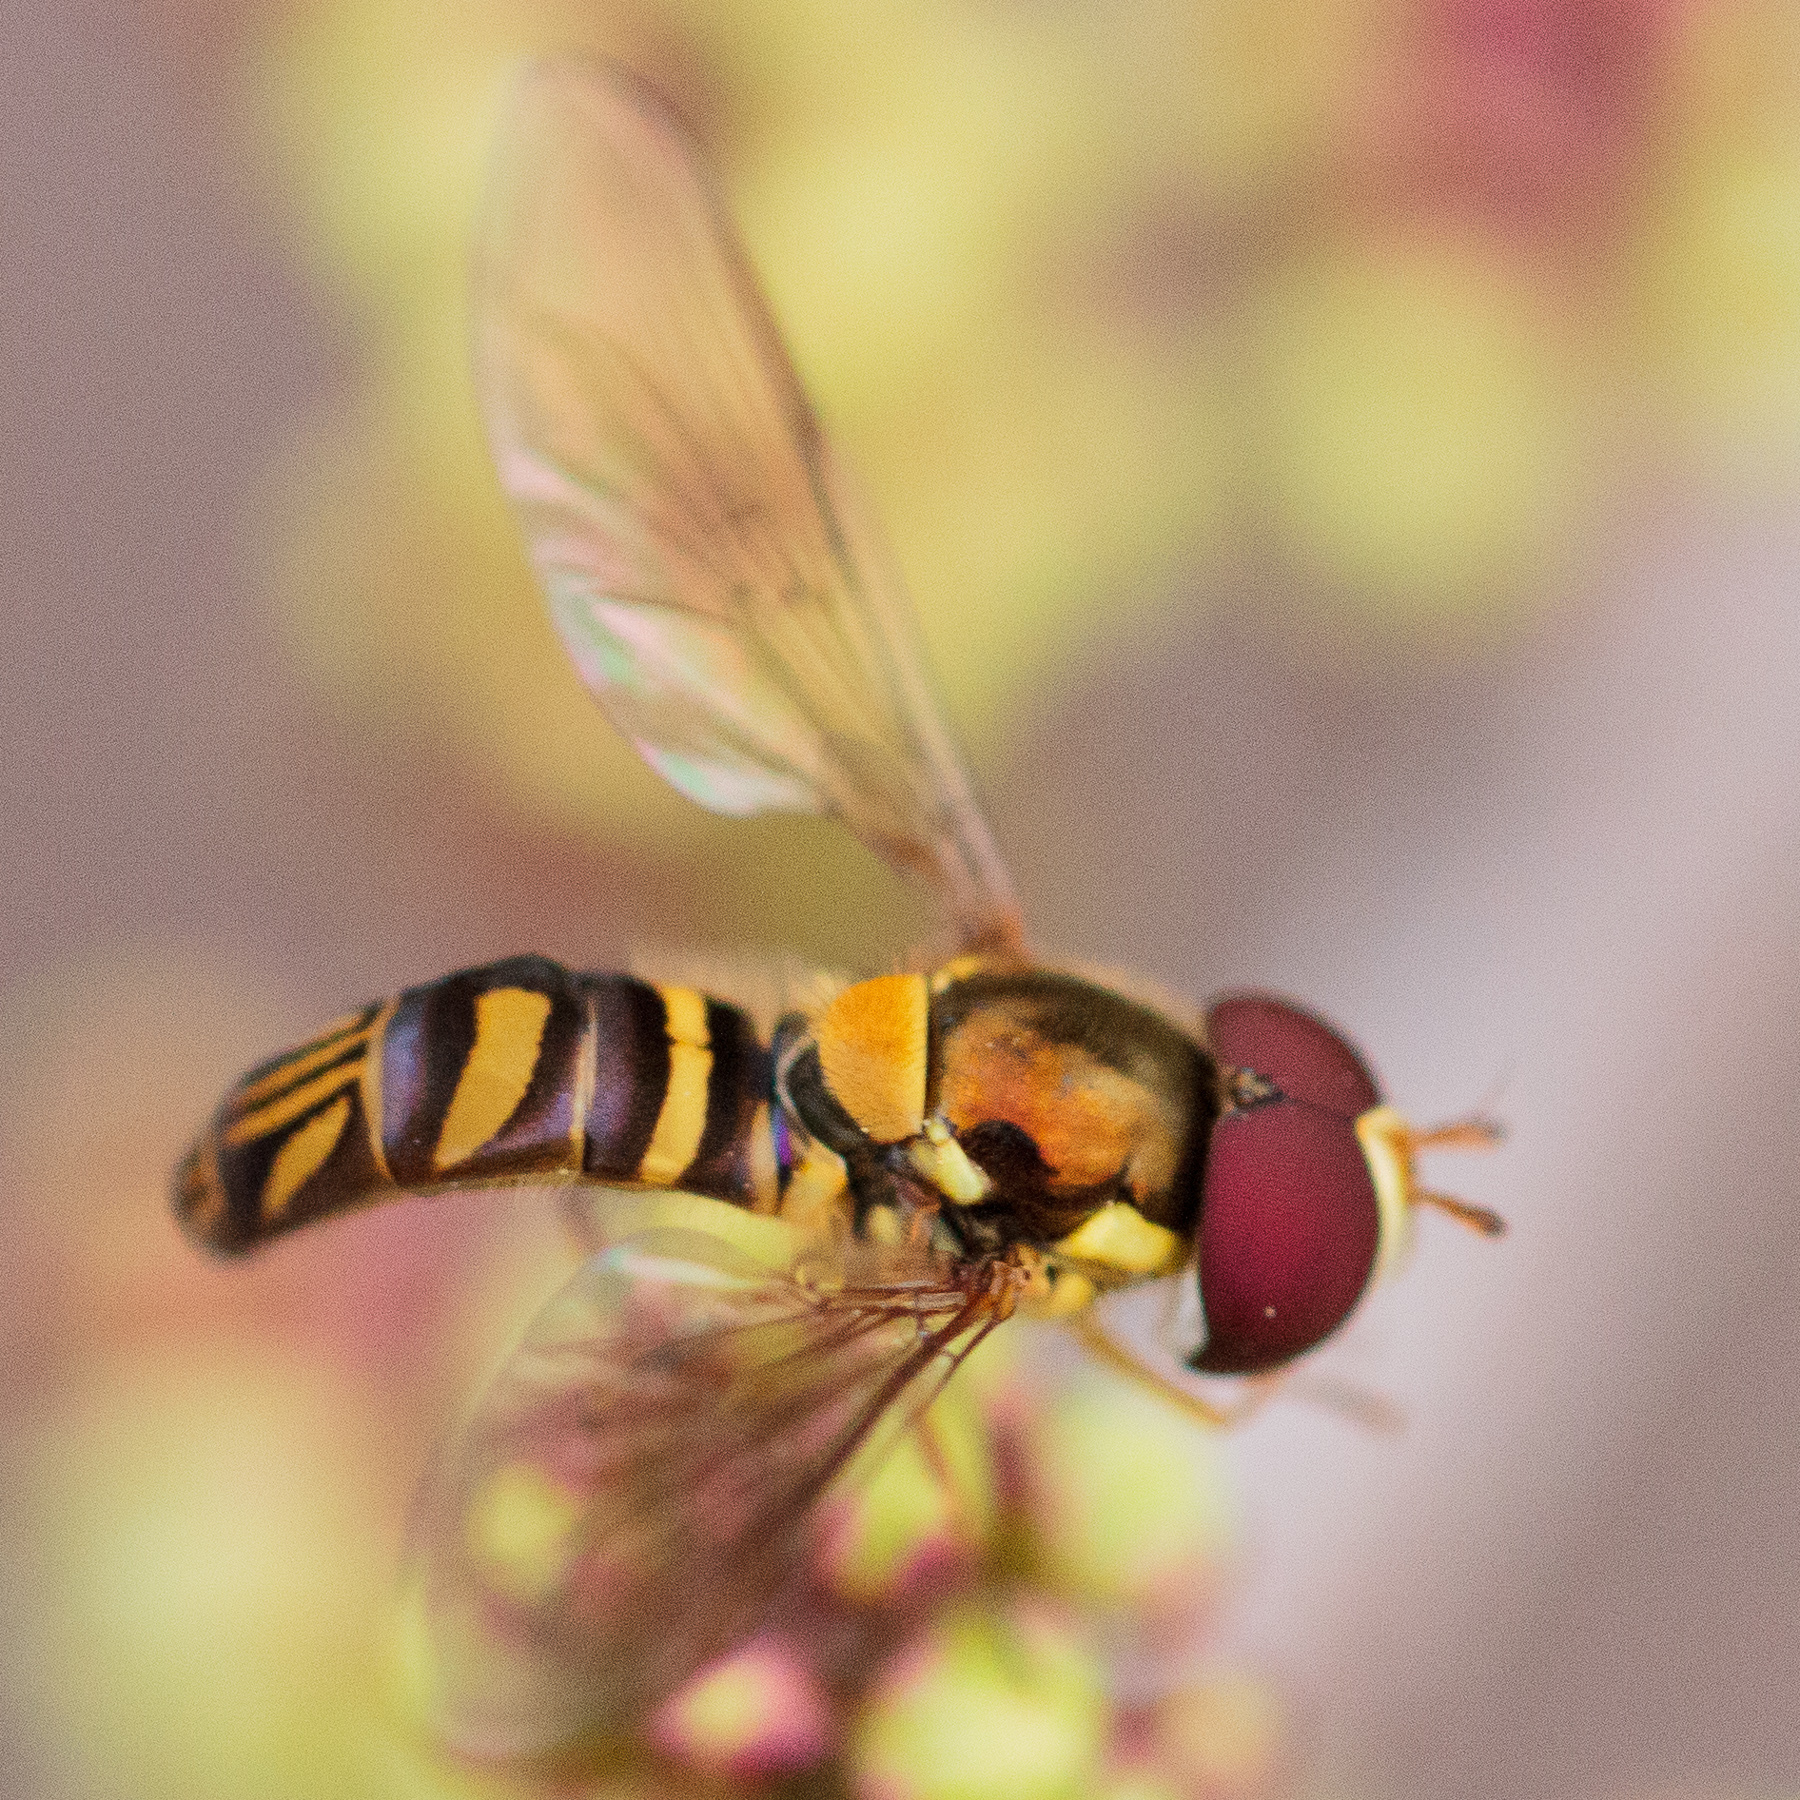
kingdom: Animalia
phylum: Arthropoda
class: Insecta
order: Diptera
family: Syrphidae
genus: Allograpta
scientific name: Allograpta obliqua
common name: Common oblique syrphid
